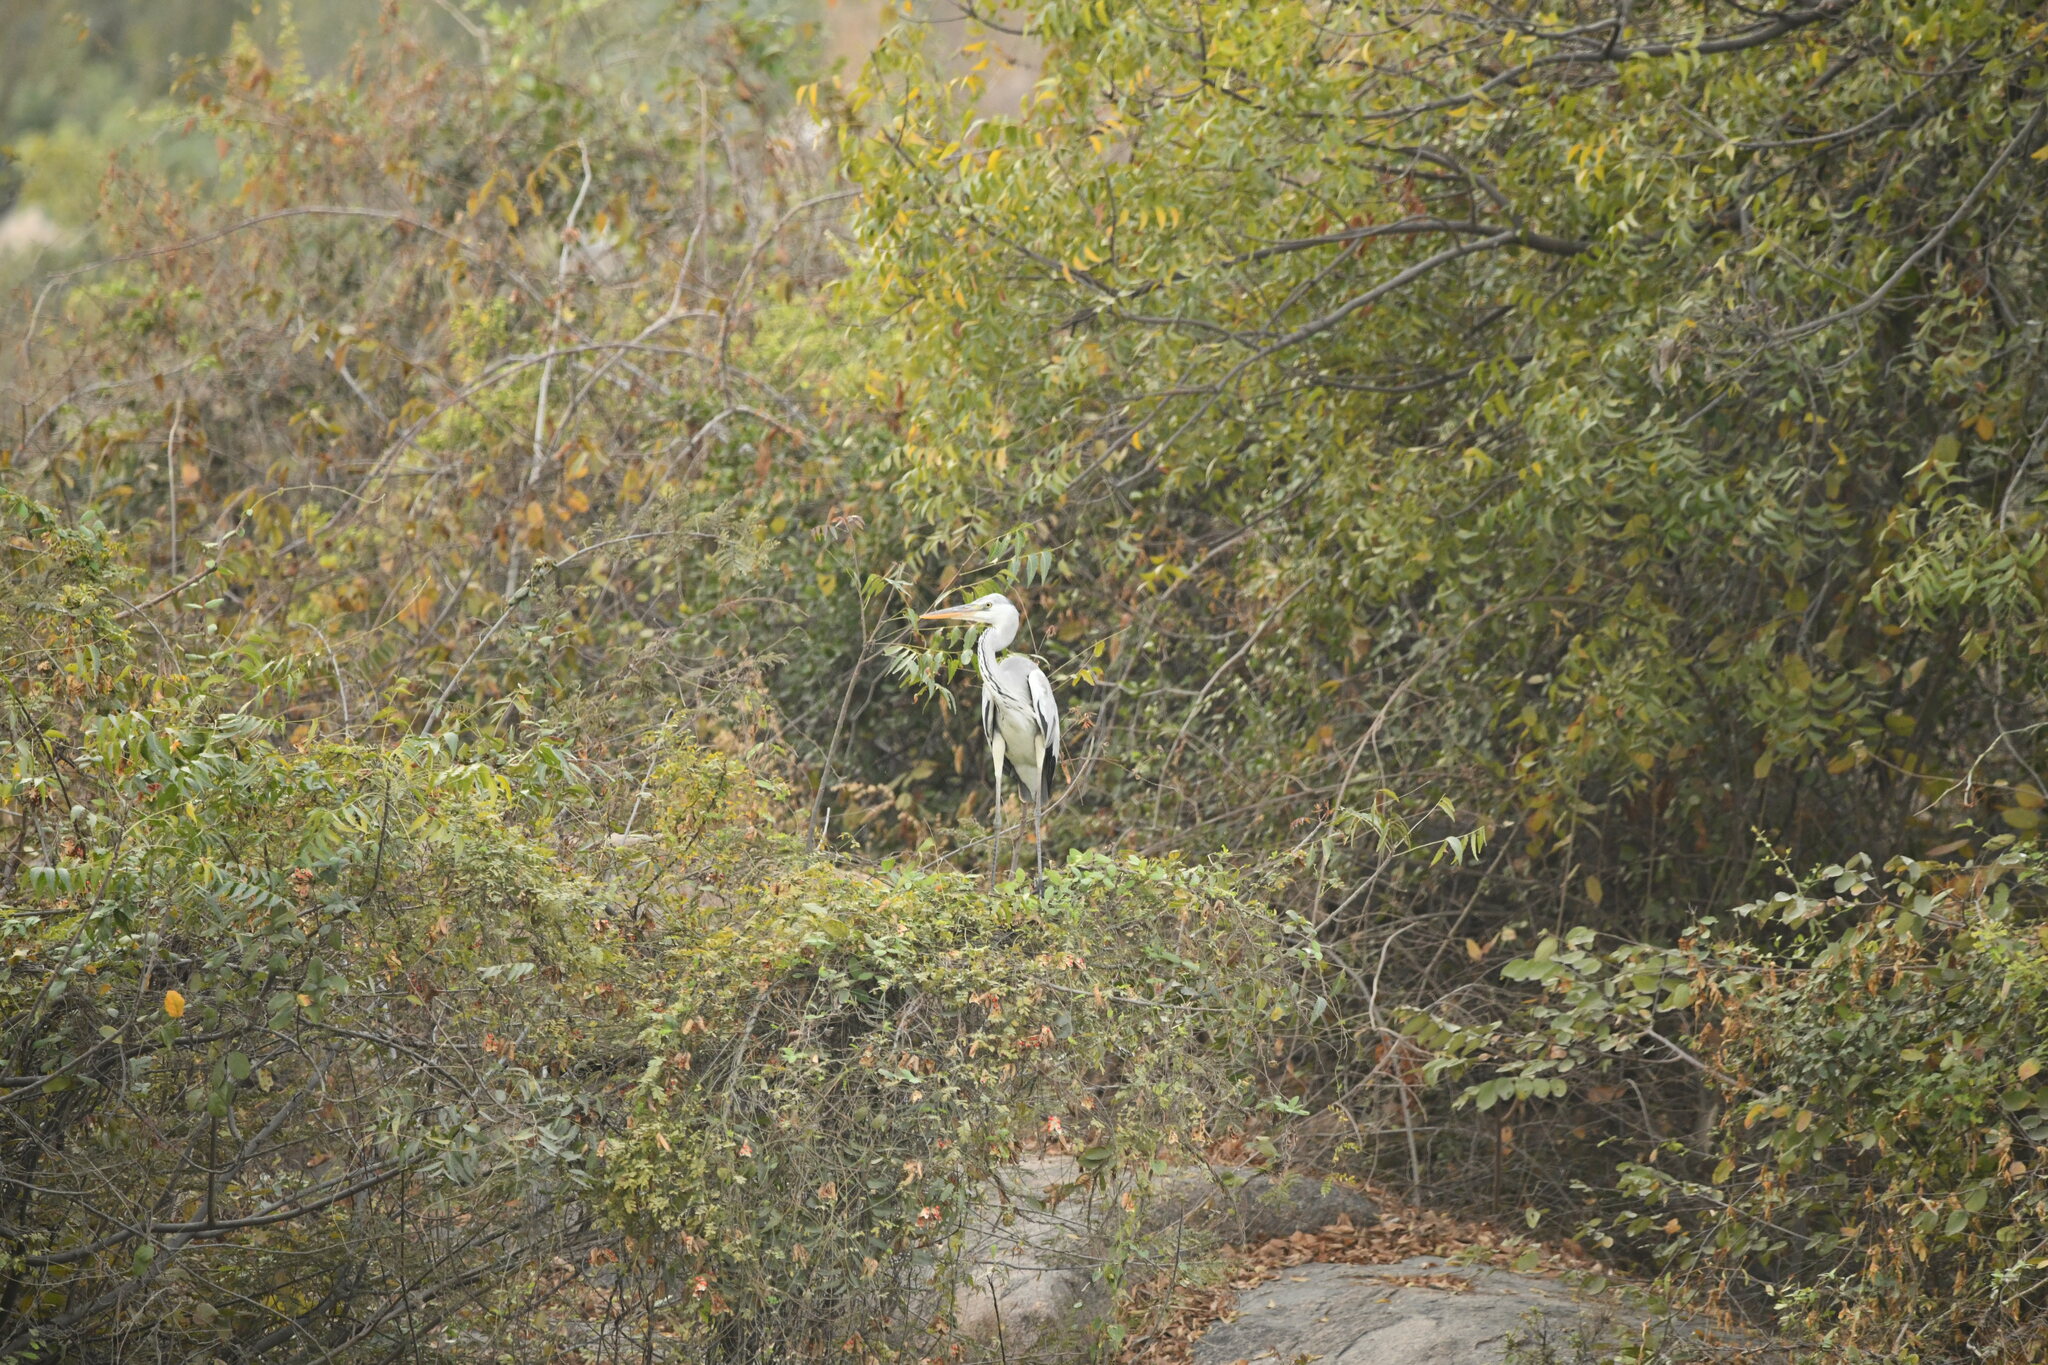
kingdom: Animalia
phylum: Chordata
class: Aves
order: Pelecaniformes
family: Ardeidae
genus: Ardea
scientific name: Ardea cinerea
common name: Grey heron
